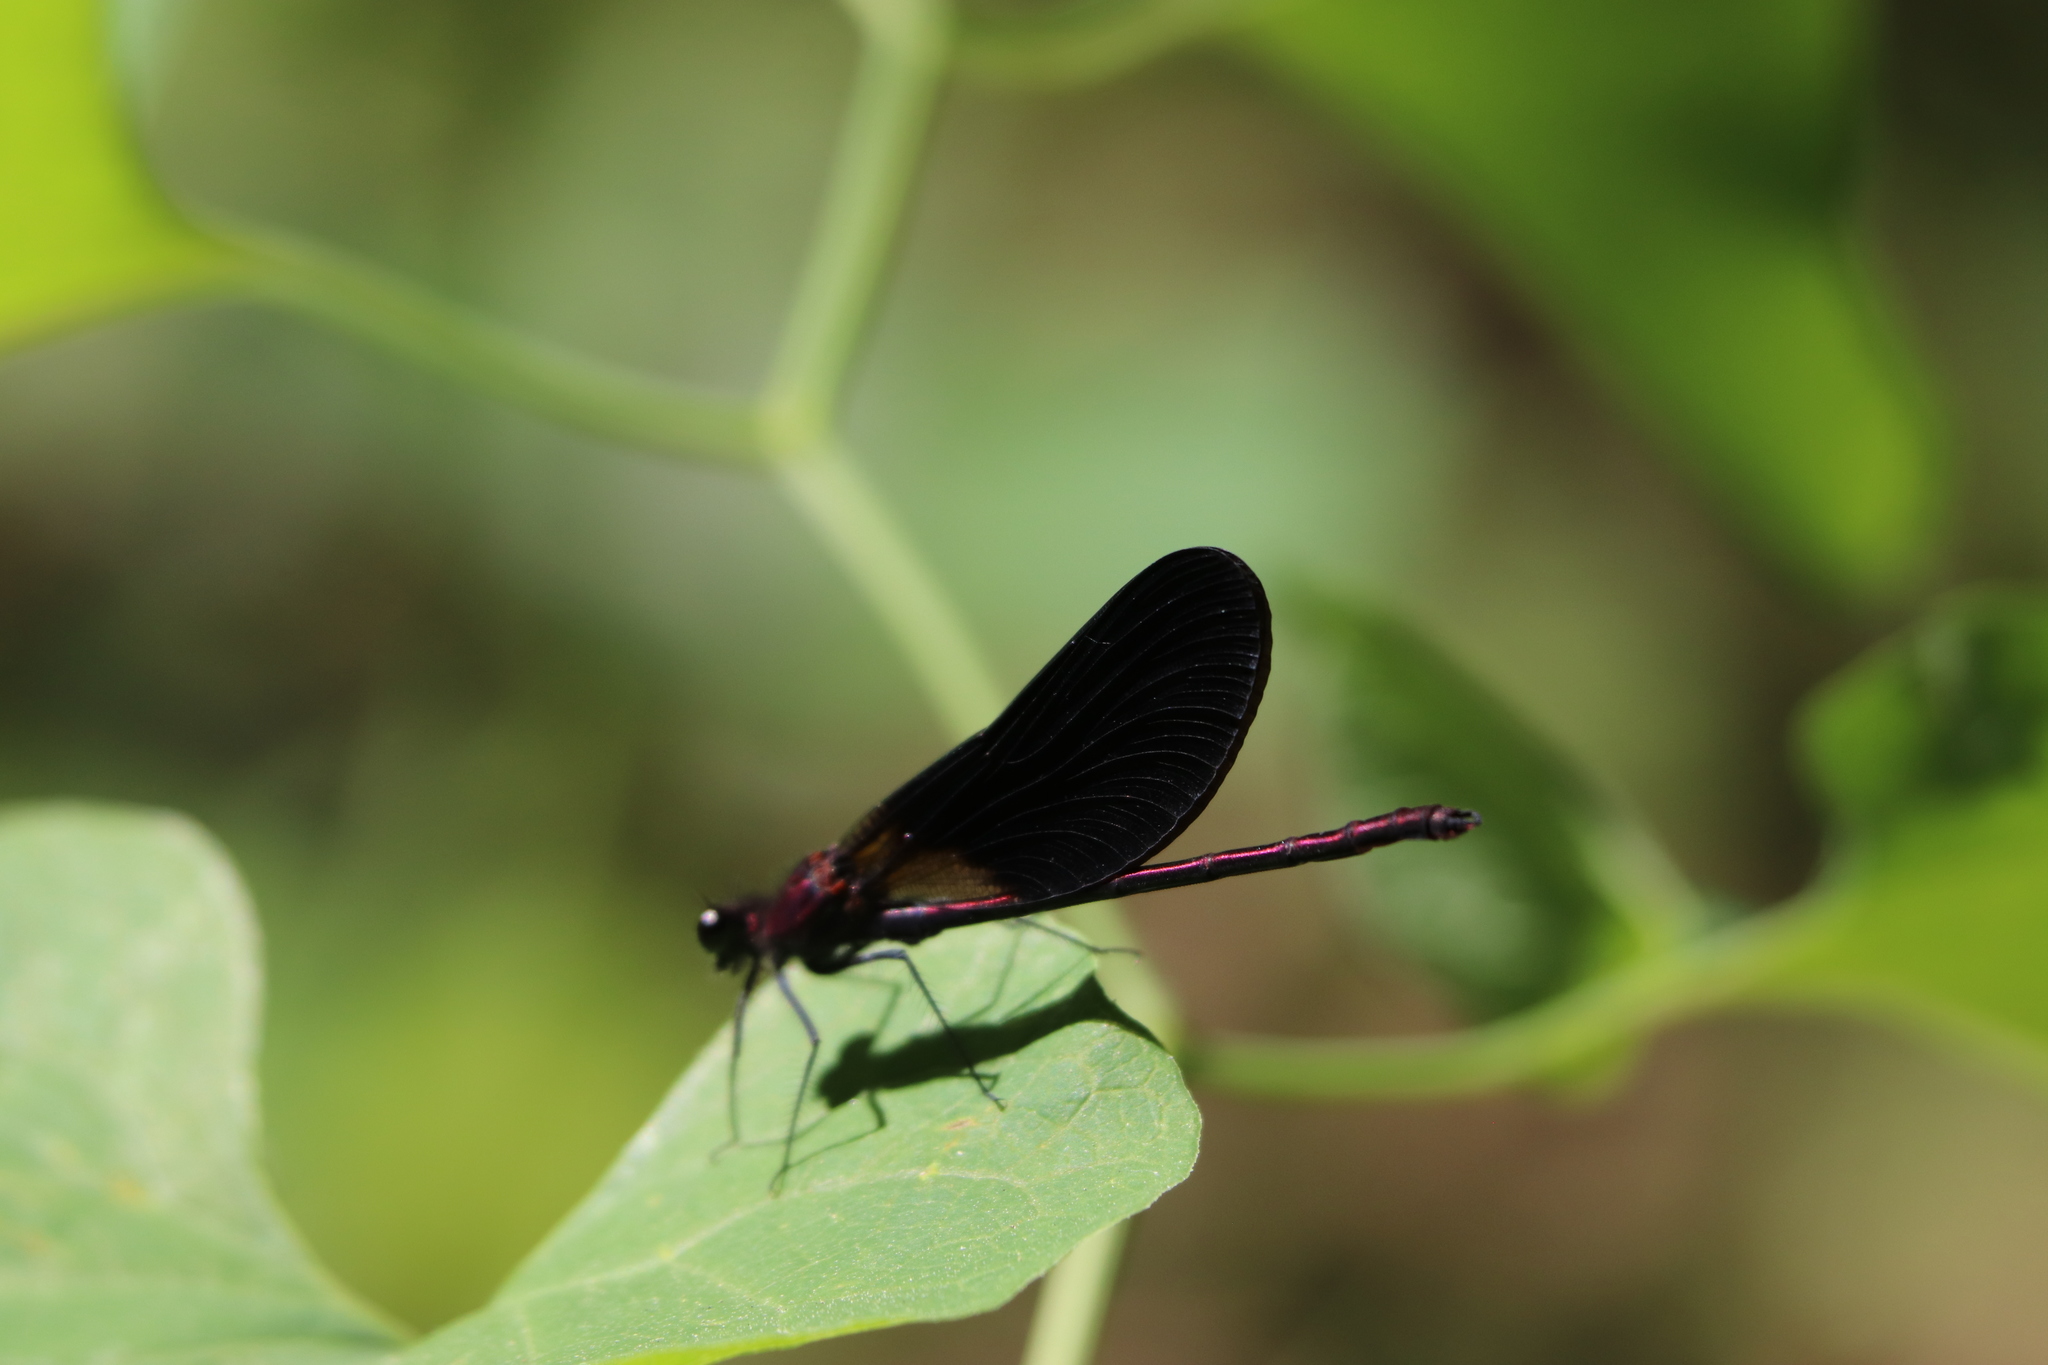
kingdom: Animalia
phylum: Arthropoda
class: Insecta
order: Odonata
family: Calopterygidae
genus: Calopteryx
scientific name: Calopteryx haemorrhoidalis
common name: Copper demoiselle
